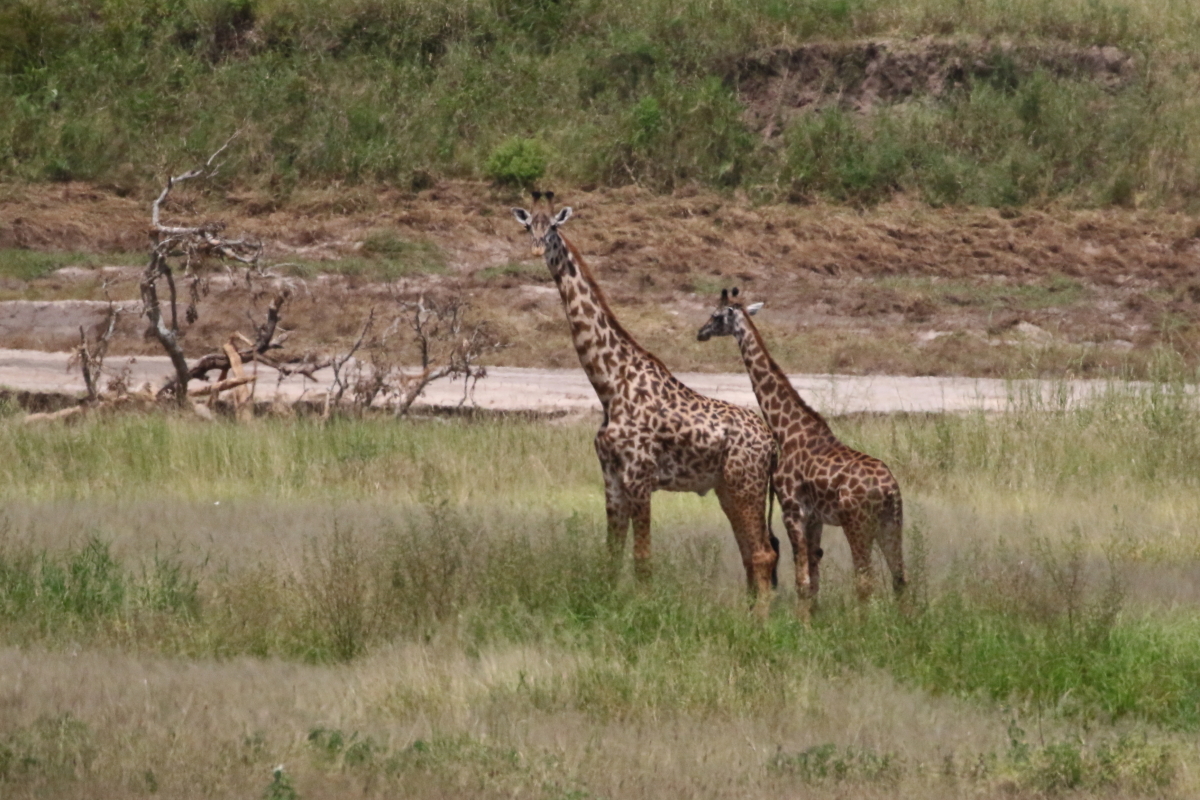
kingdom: Animalia
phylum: Chordata
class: Mammalia
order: Artiodactyla
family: Giraffidae
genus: Giraffa
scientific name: Giraffa tippelskirchi
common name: Masai giraffe
